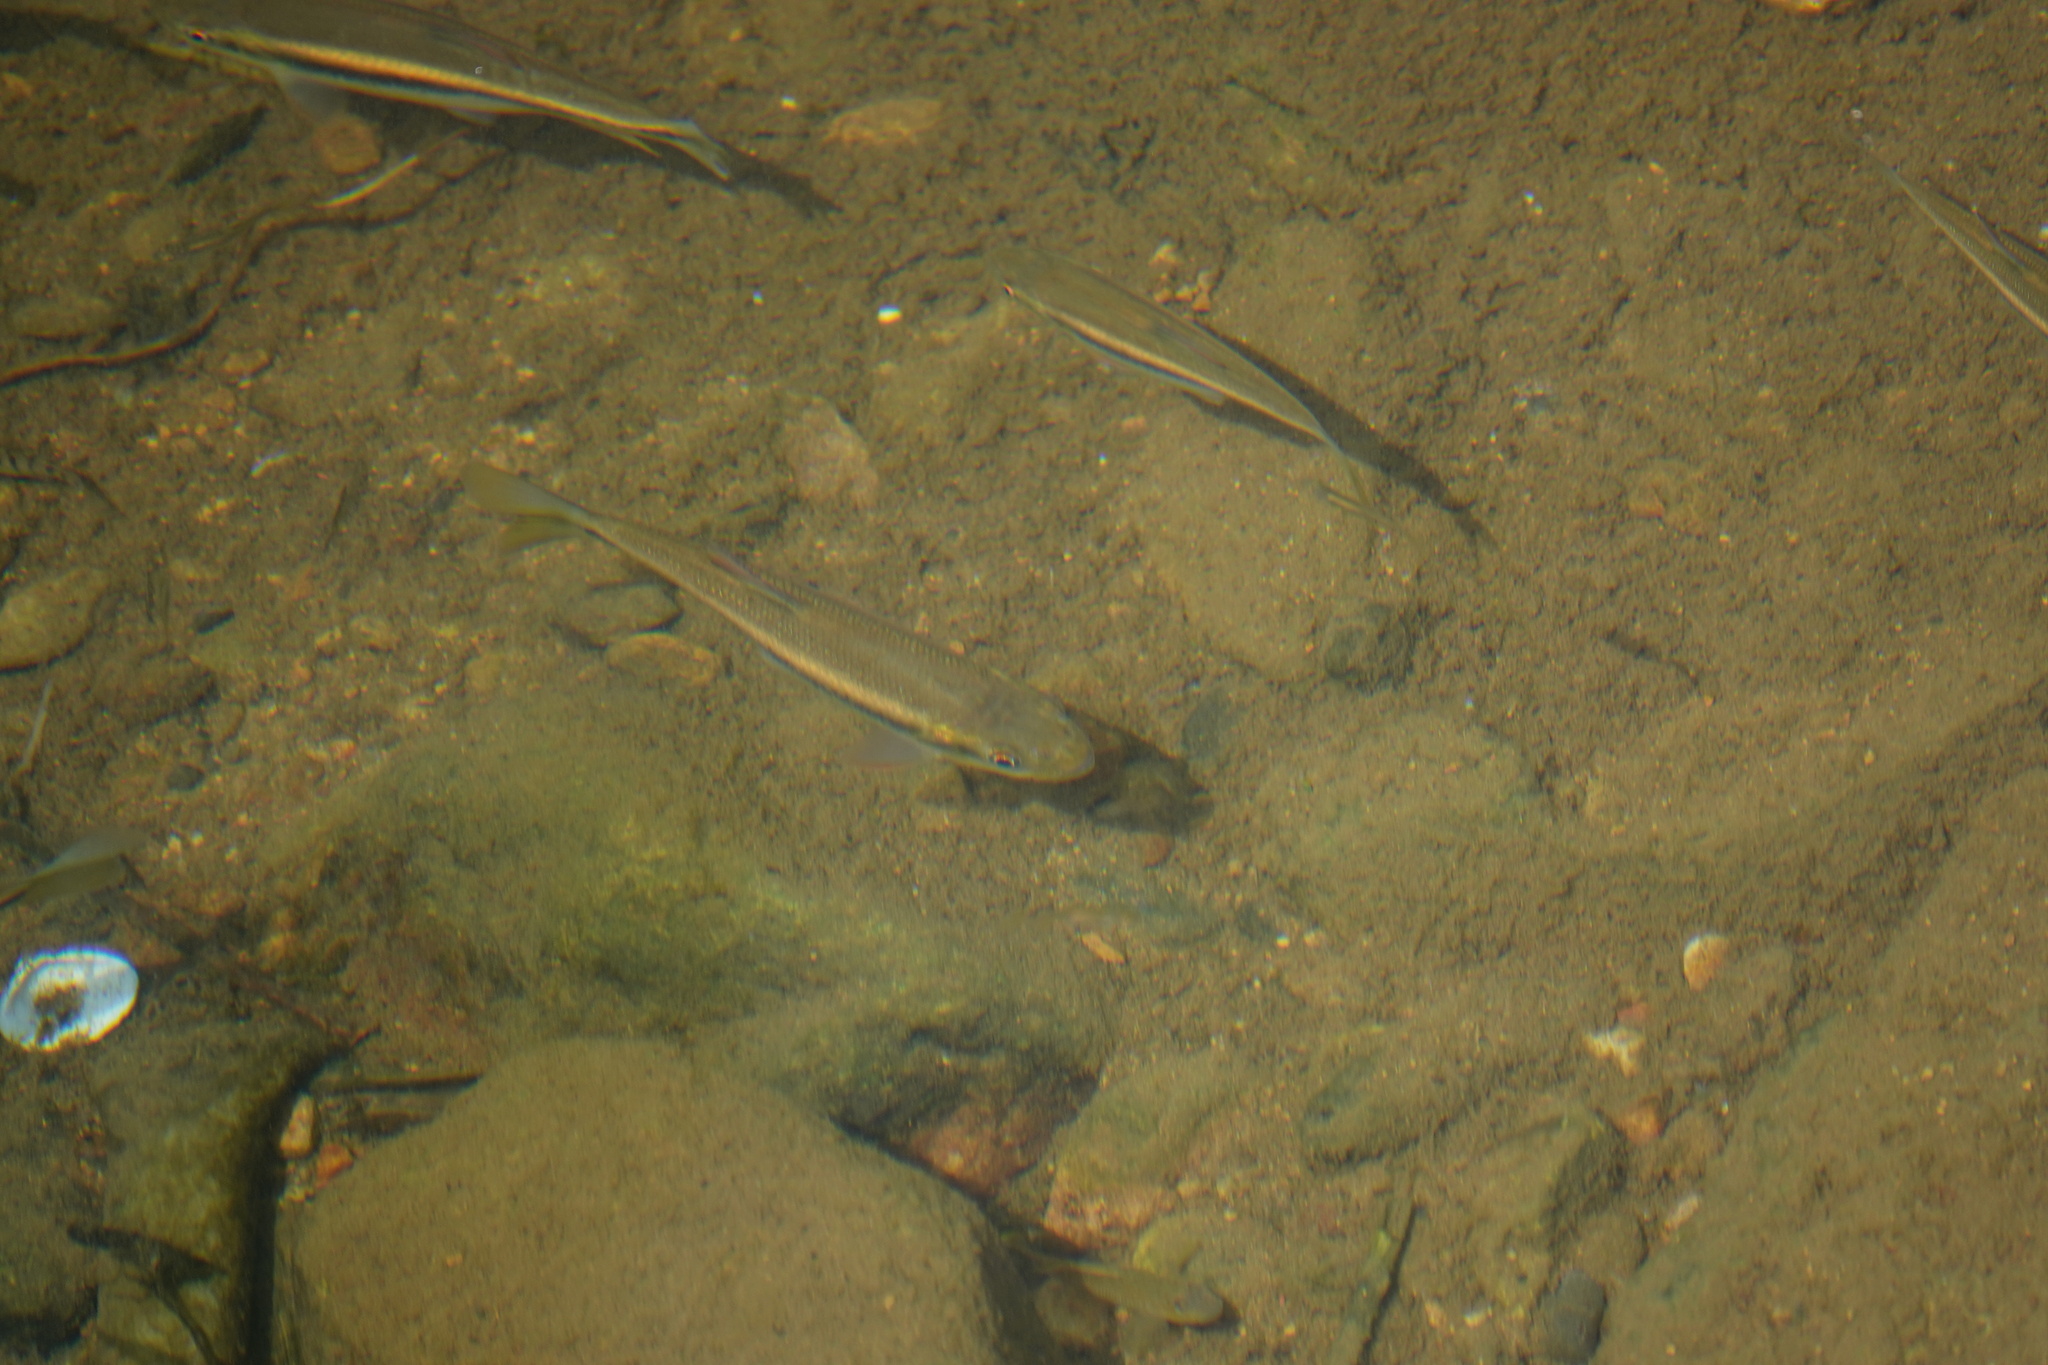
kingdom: Animalia
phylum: Chordata
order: Cypriniformes
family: Cyprinidae
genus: Candidia
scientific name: Candidia barbata
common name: Lake candidus dace
